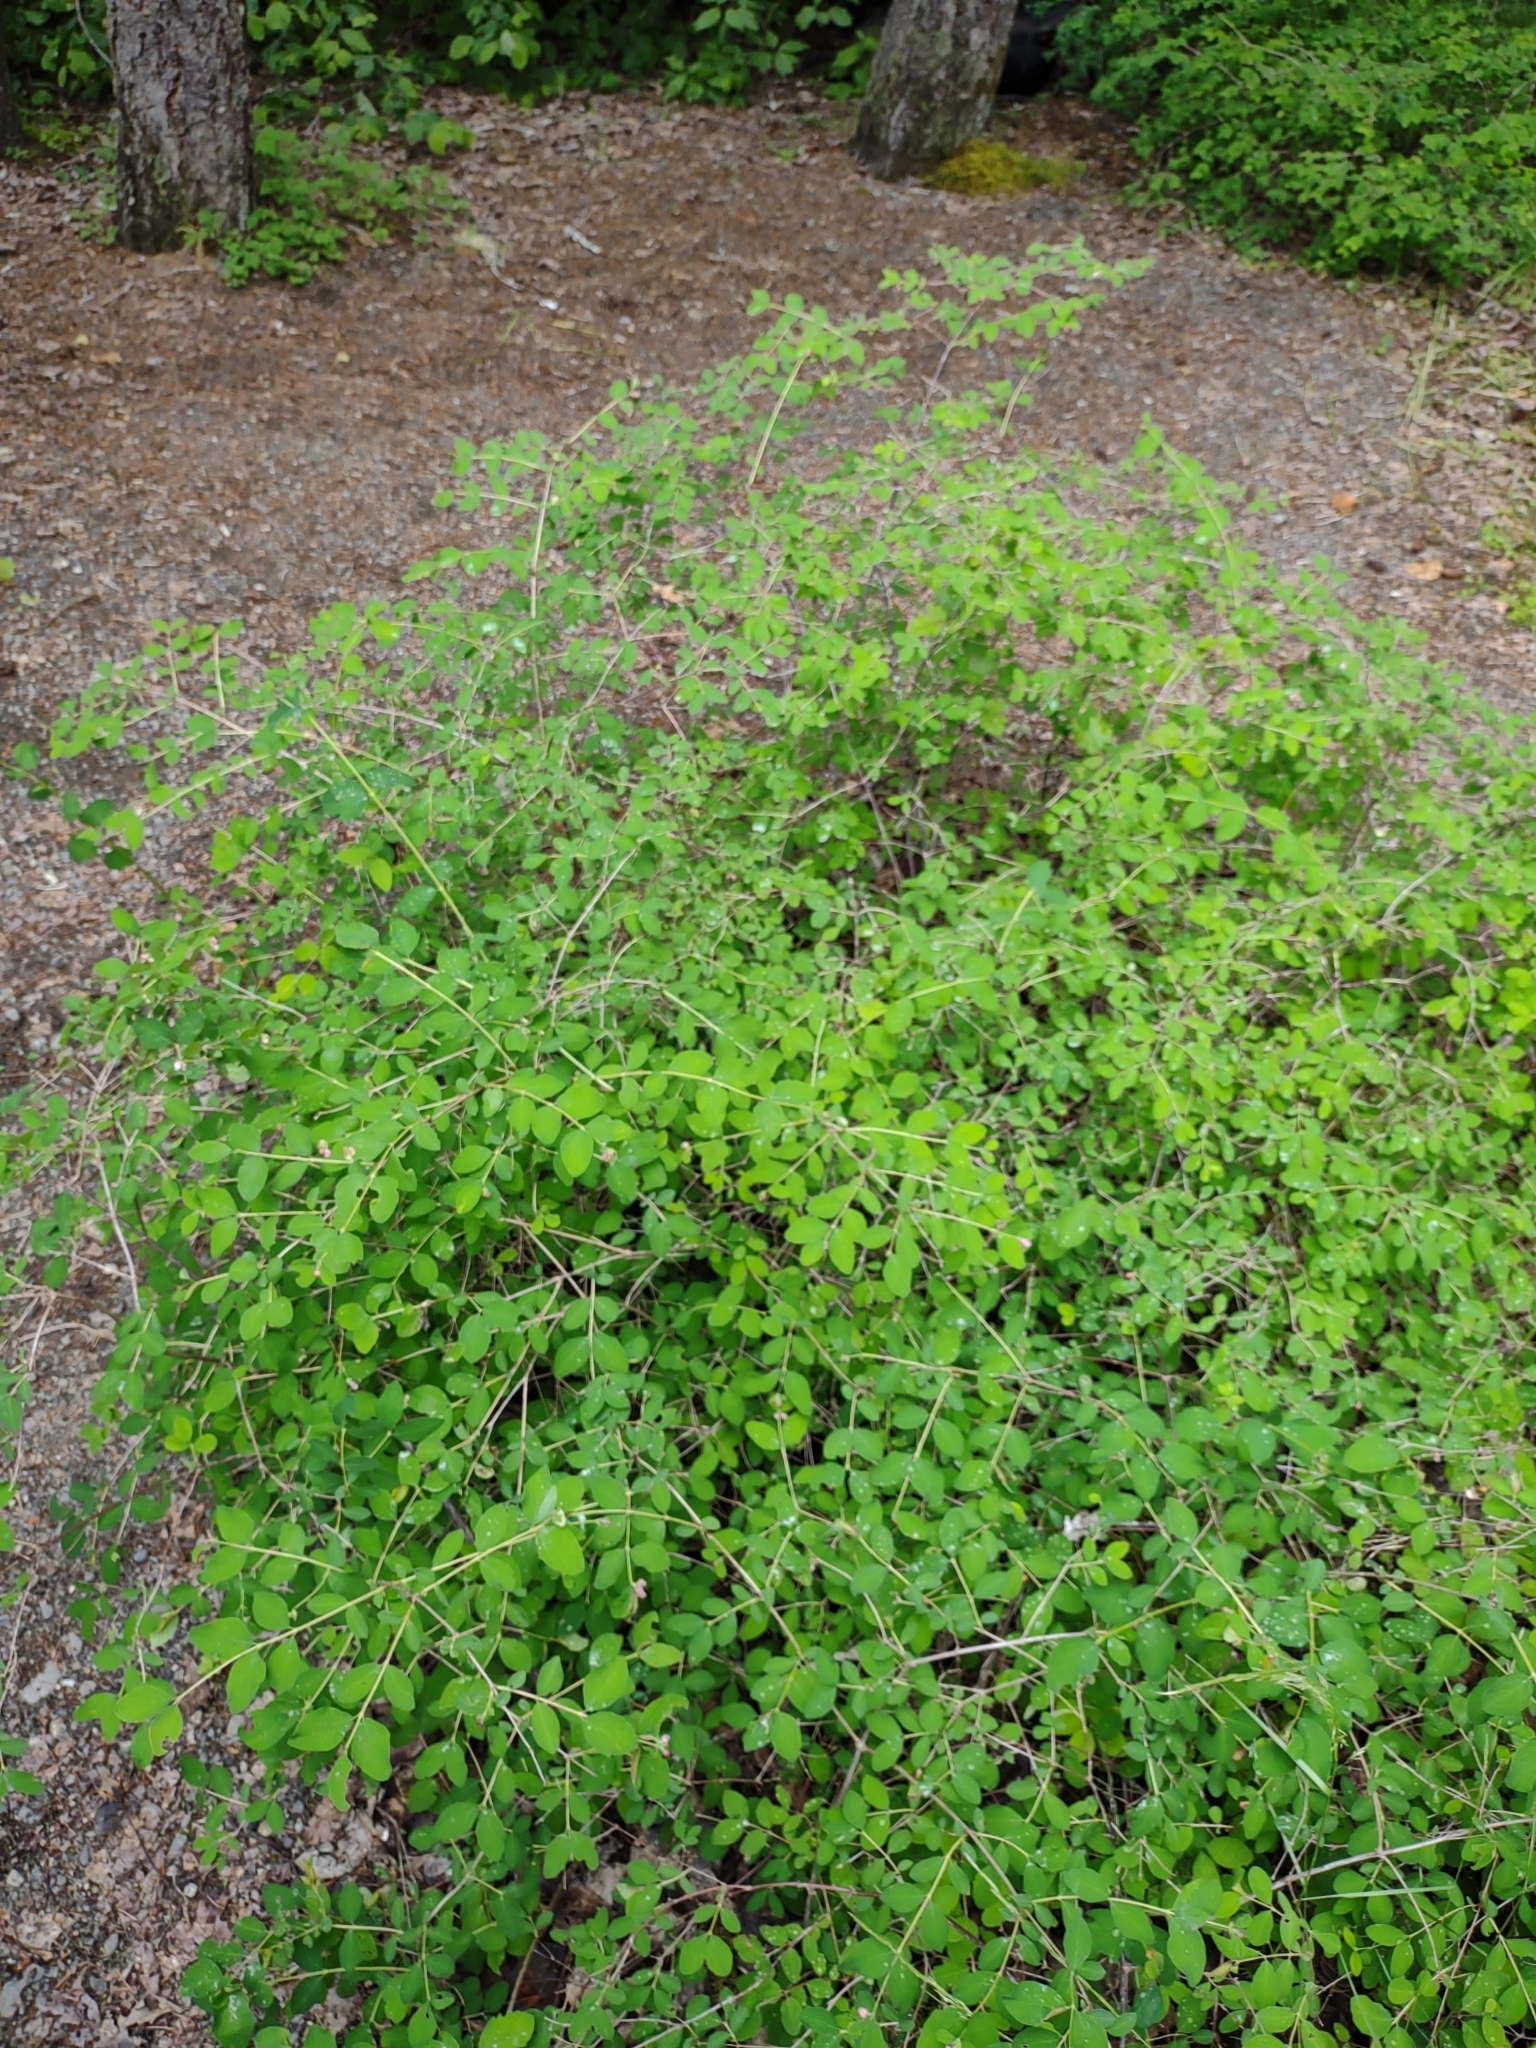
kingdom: Plantae
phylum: Tracheophyta
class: Magnoliopsida
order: Dipsacales
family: Caprifoliaceae
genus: Symphoricarpos
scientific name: Symphoricarpos albus
